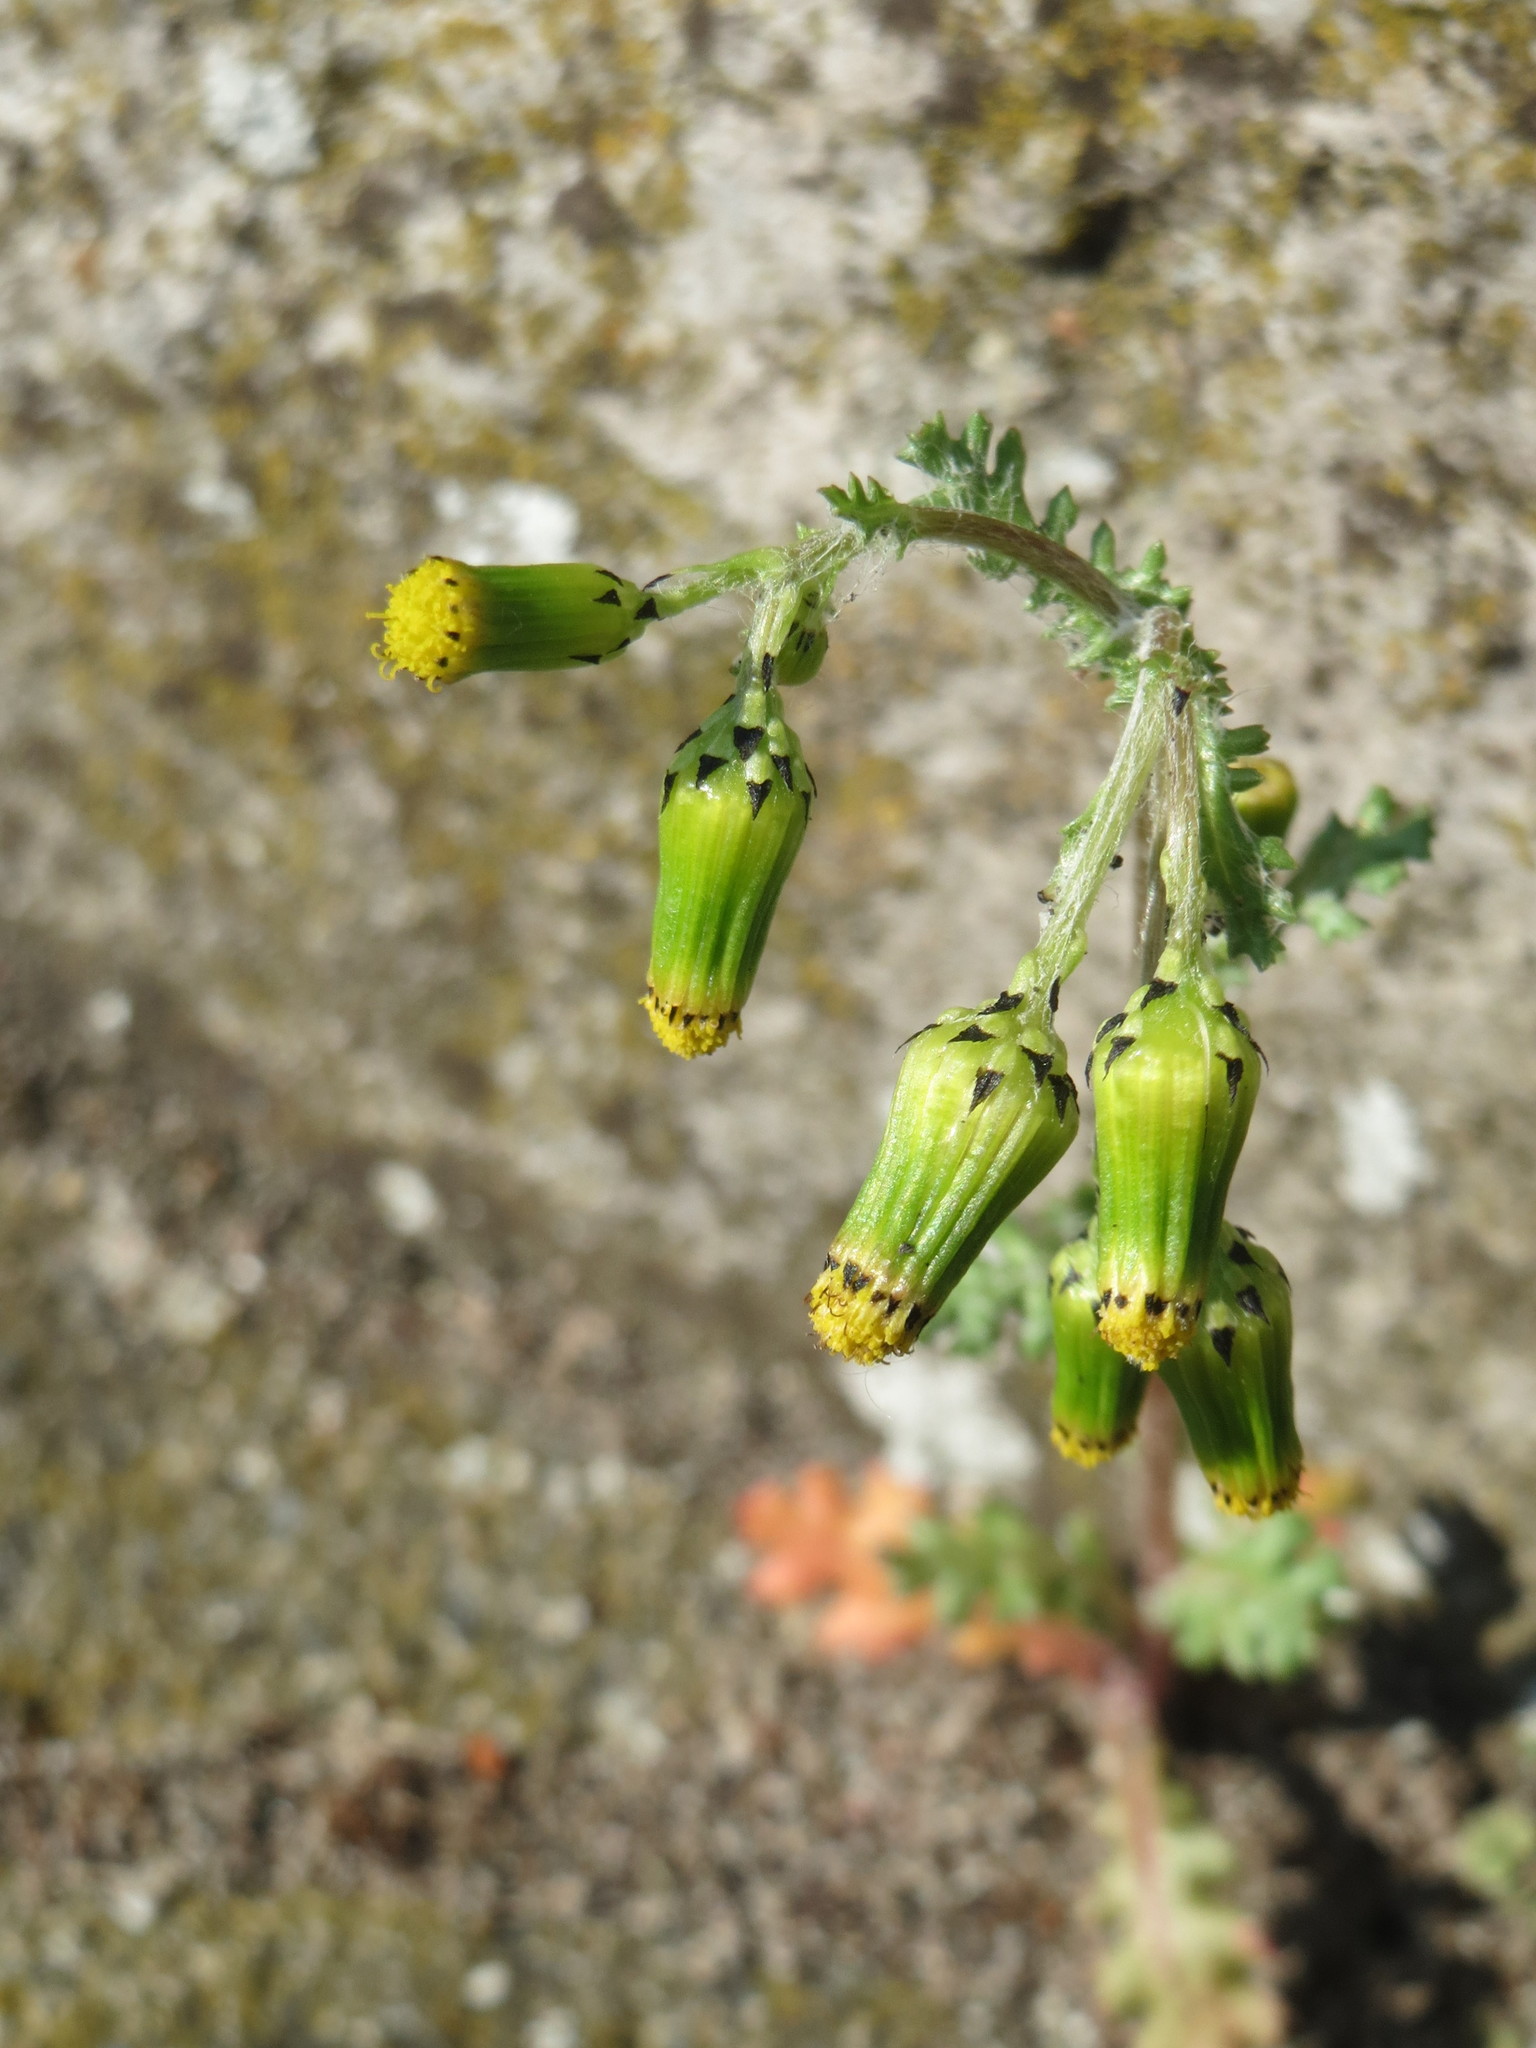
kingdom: Plantae
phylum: Tracheophyta
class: Magnoliopsida
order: Asterales
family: Asteraceae
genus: Senecio
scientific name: Senecio vulgaris
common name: Old-man-in-the-spring
